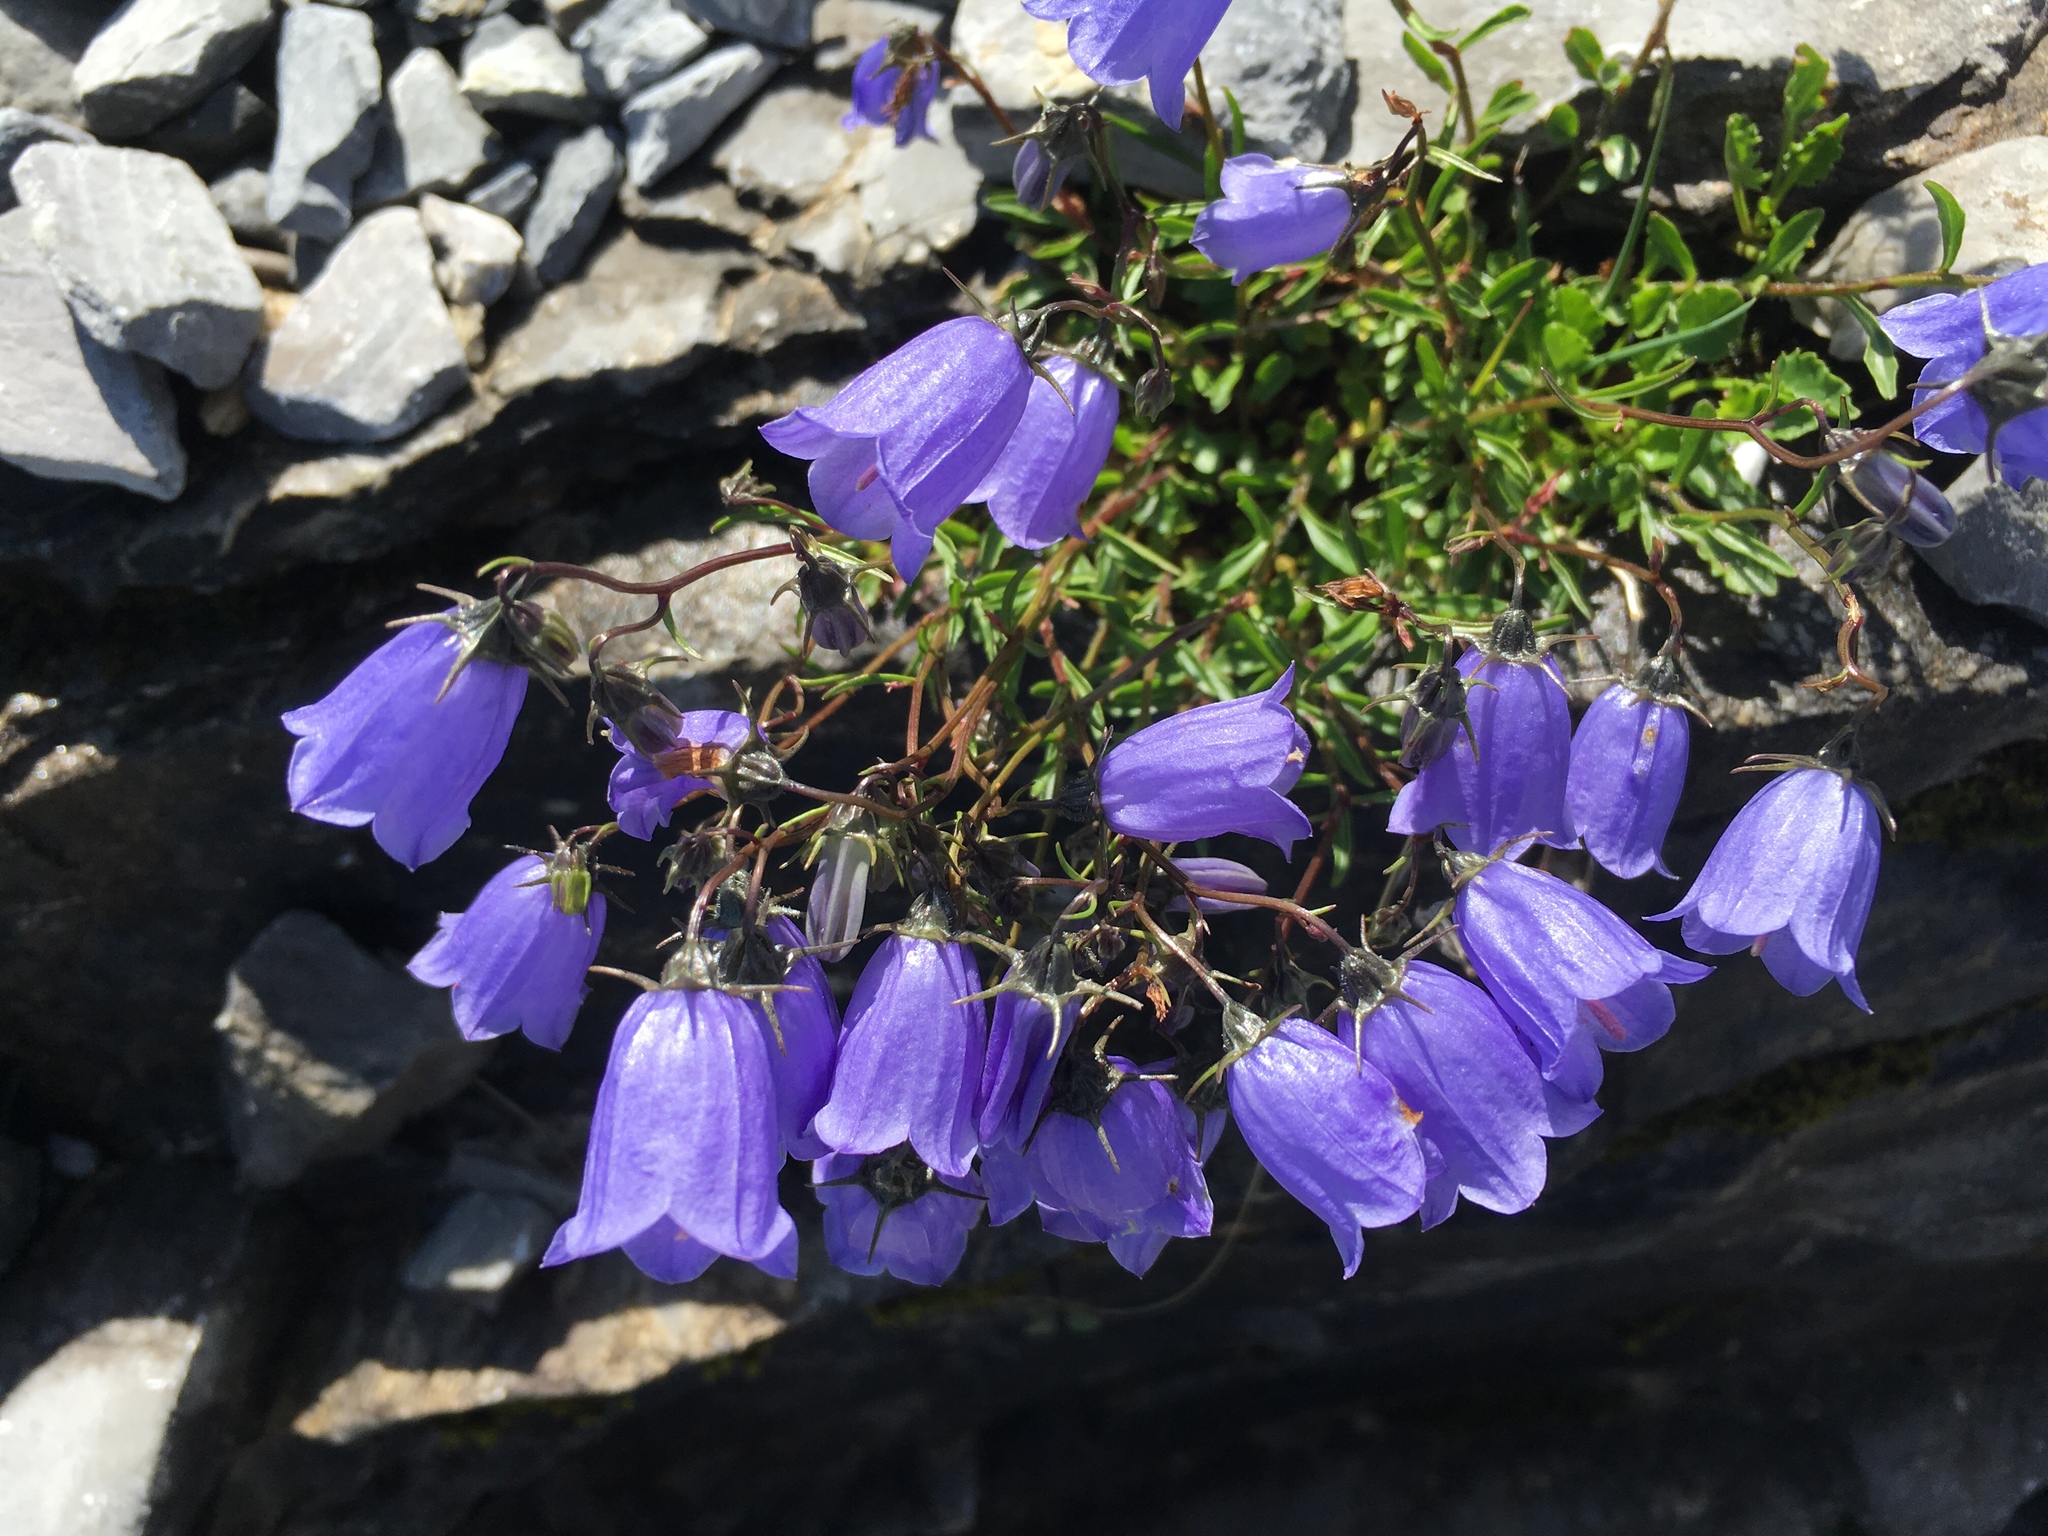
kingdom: Plantae
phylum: Tracheophyta
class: Magnoliopsida
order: Asterales
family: Campanulaceae
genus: Campanula
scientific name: Campanula cochleariifolia
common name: Fairies'-thimbles
